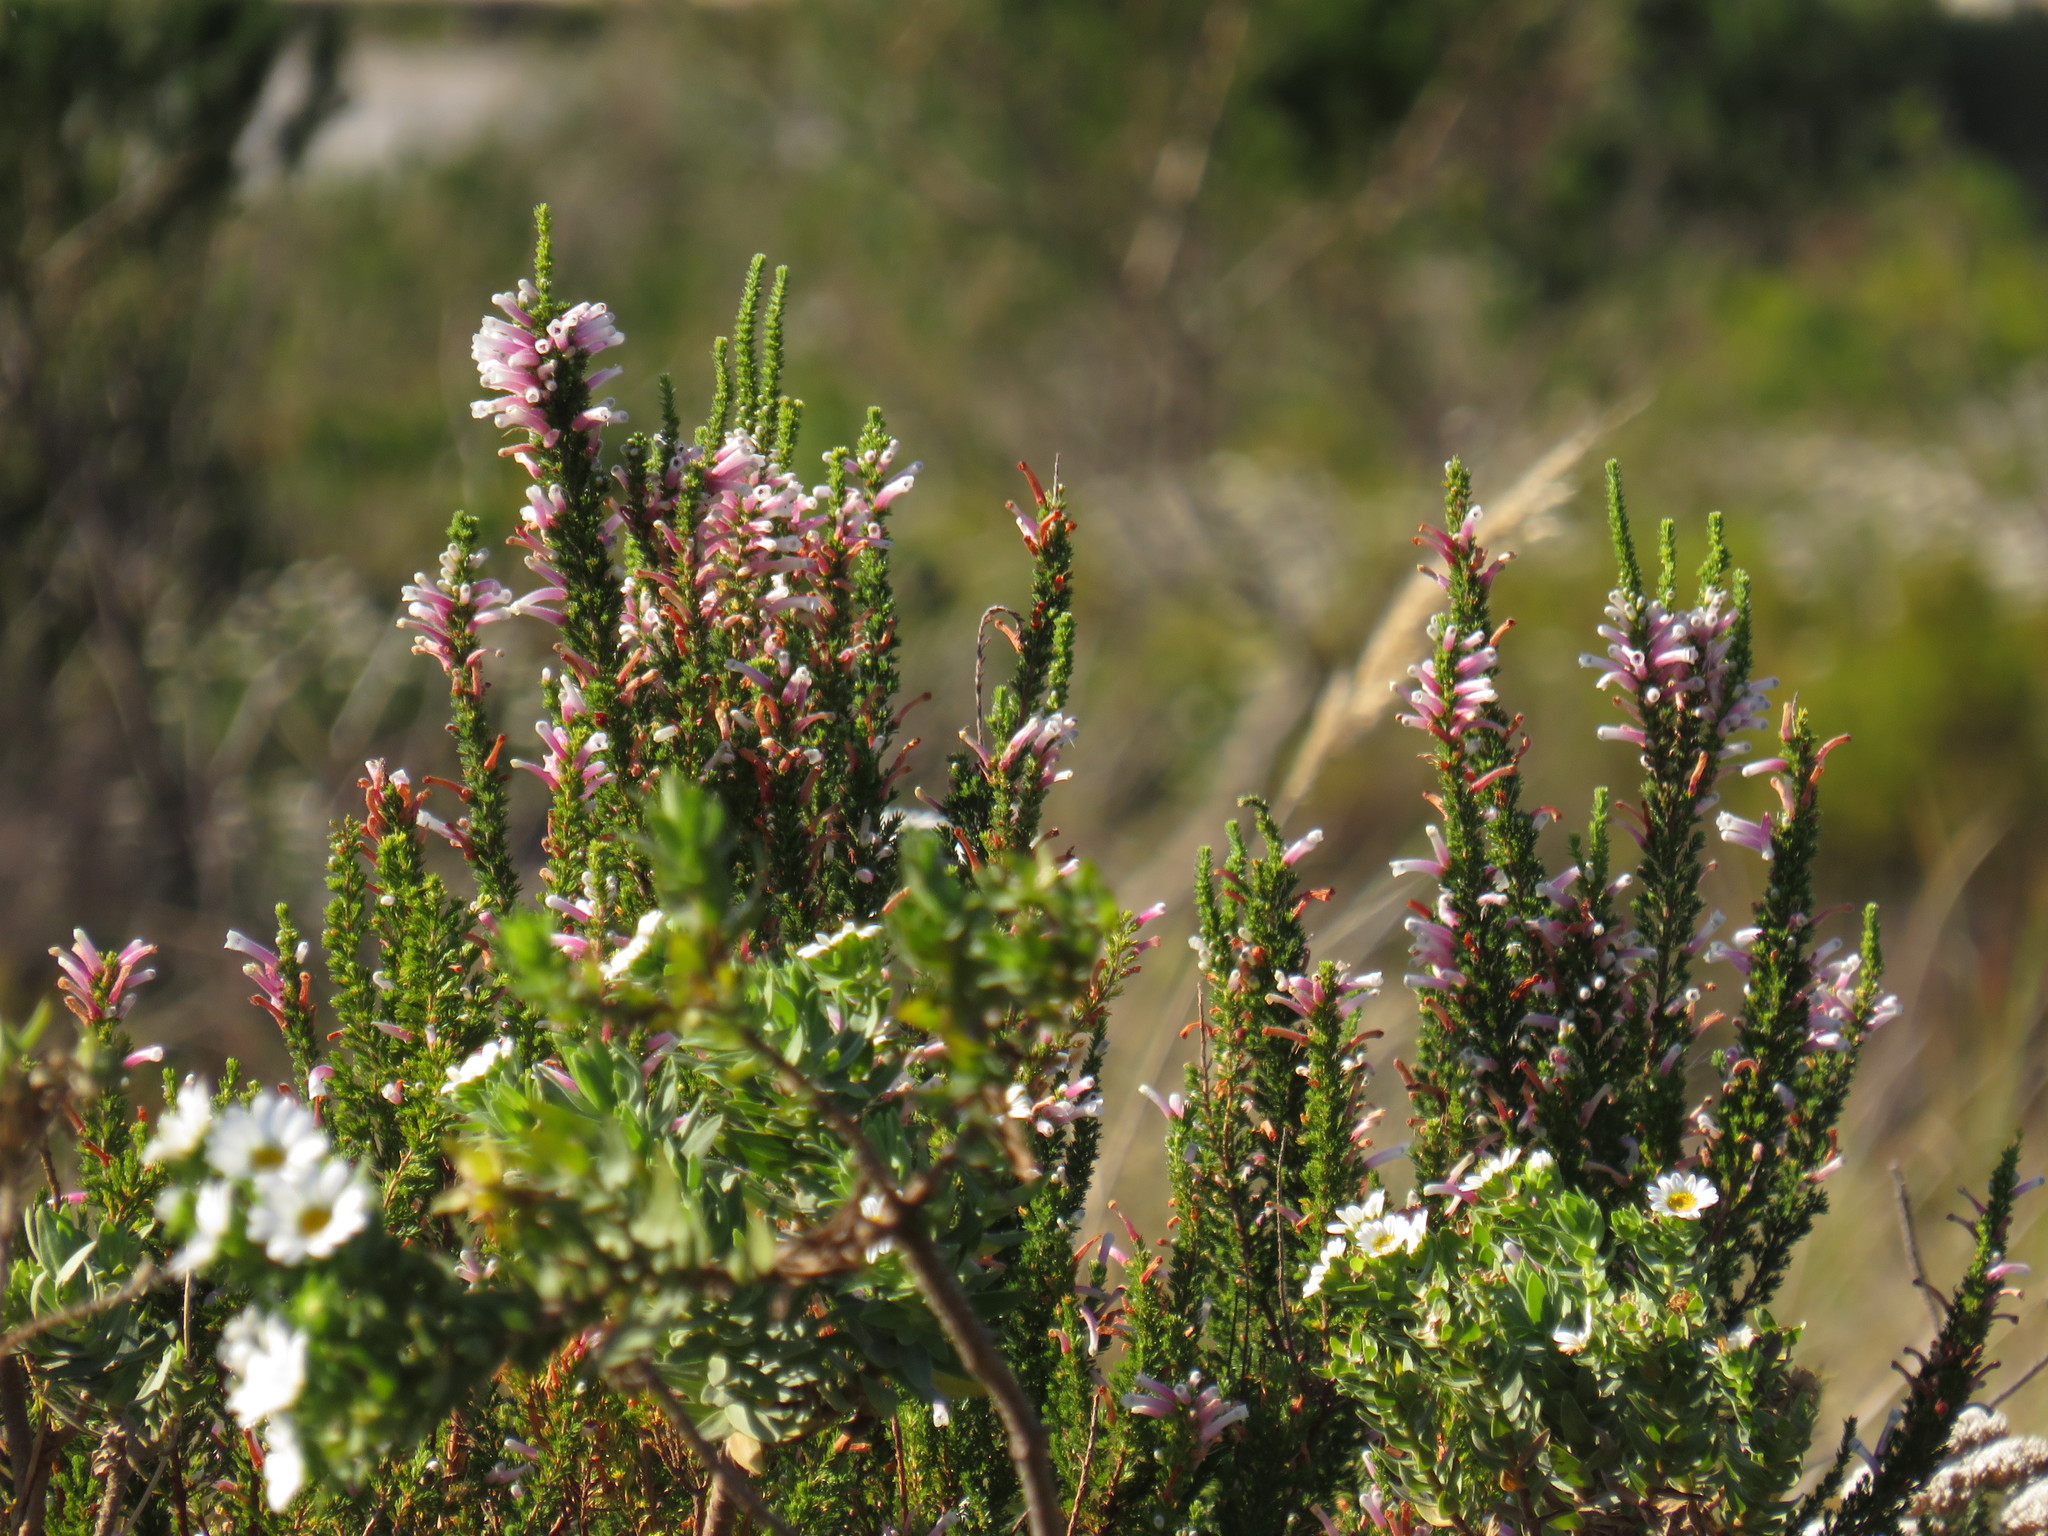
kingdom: Plantae
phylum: Tracheophyta
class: Magnoliopsida
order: Ericales
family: Ericaceae
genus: Erica
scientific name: Erica perspicua
